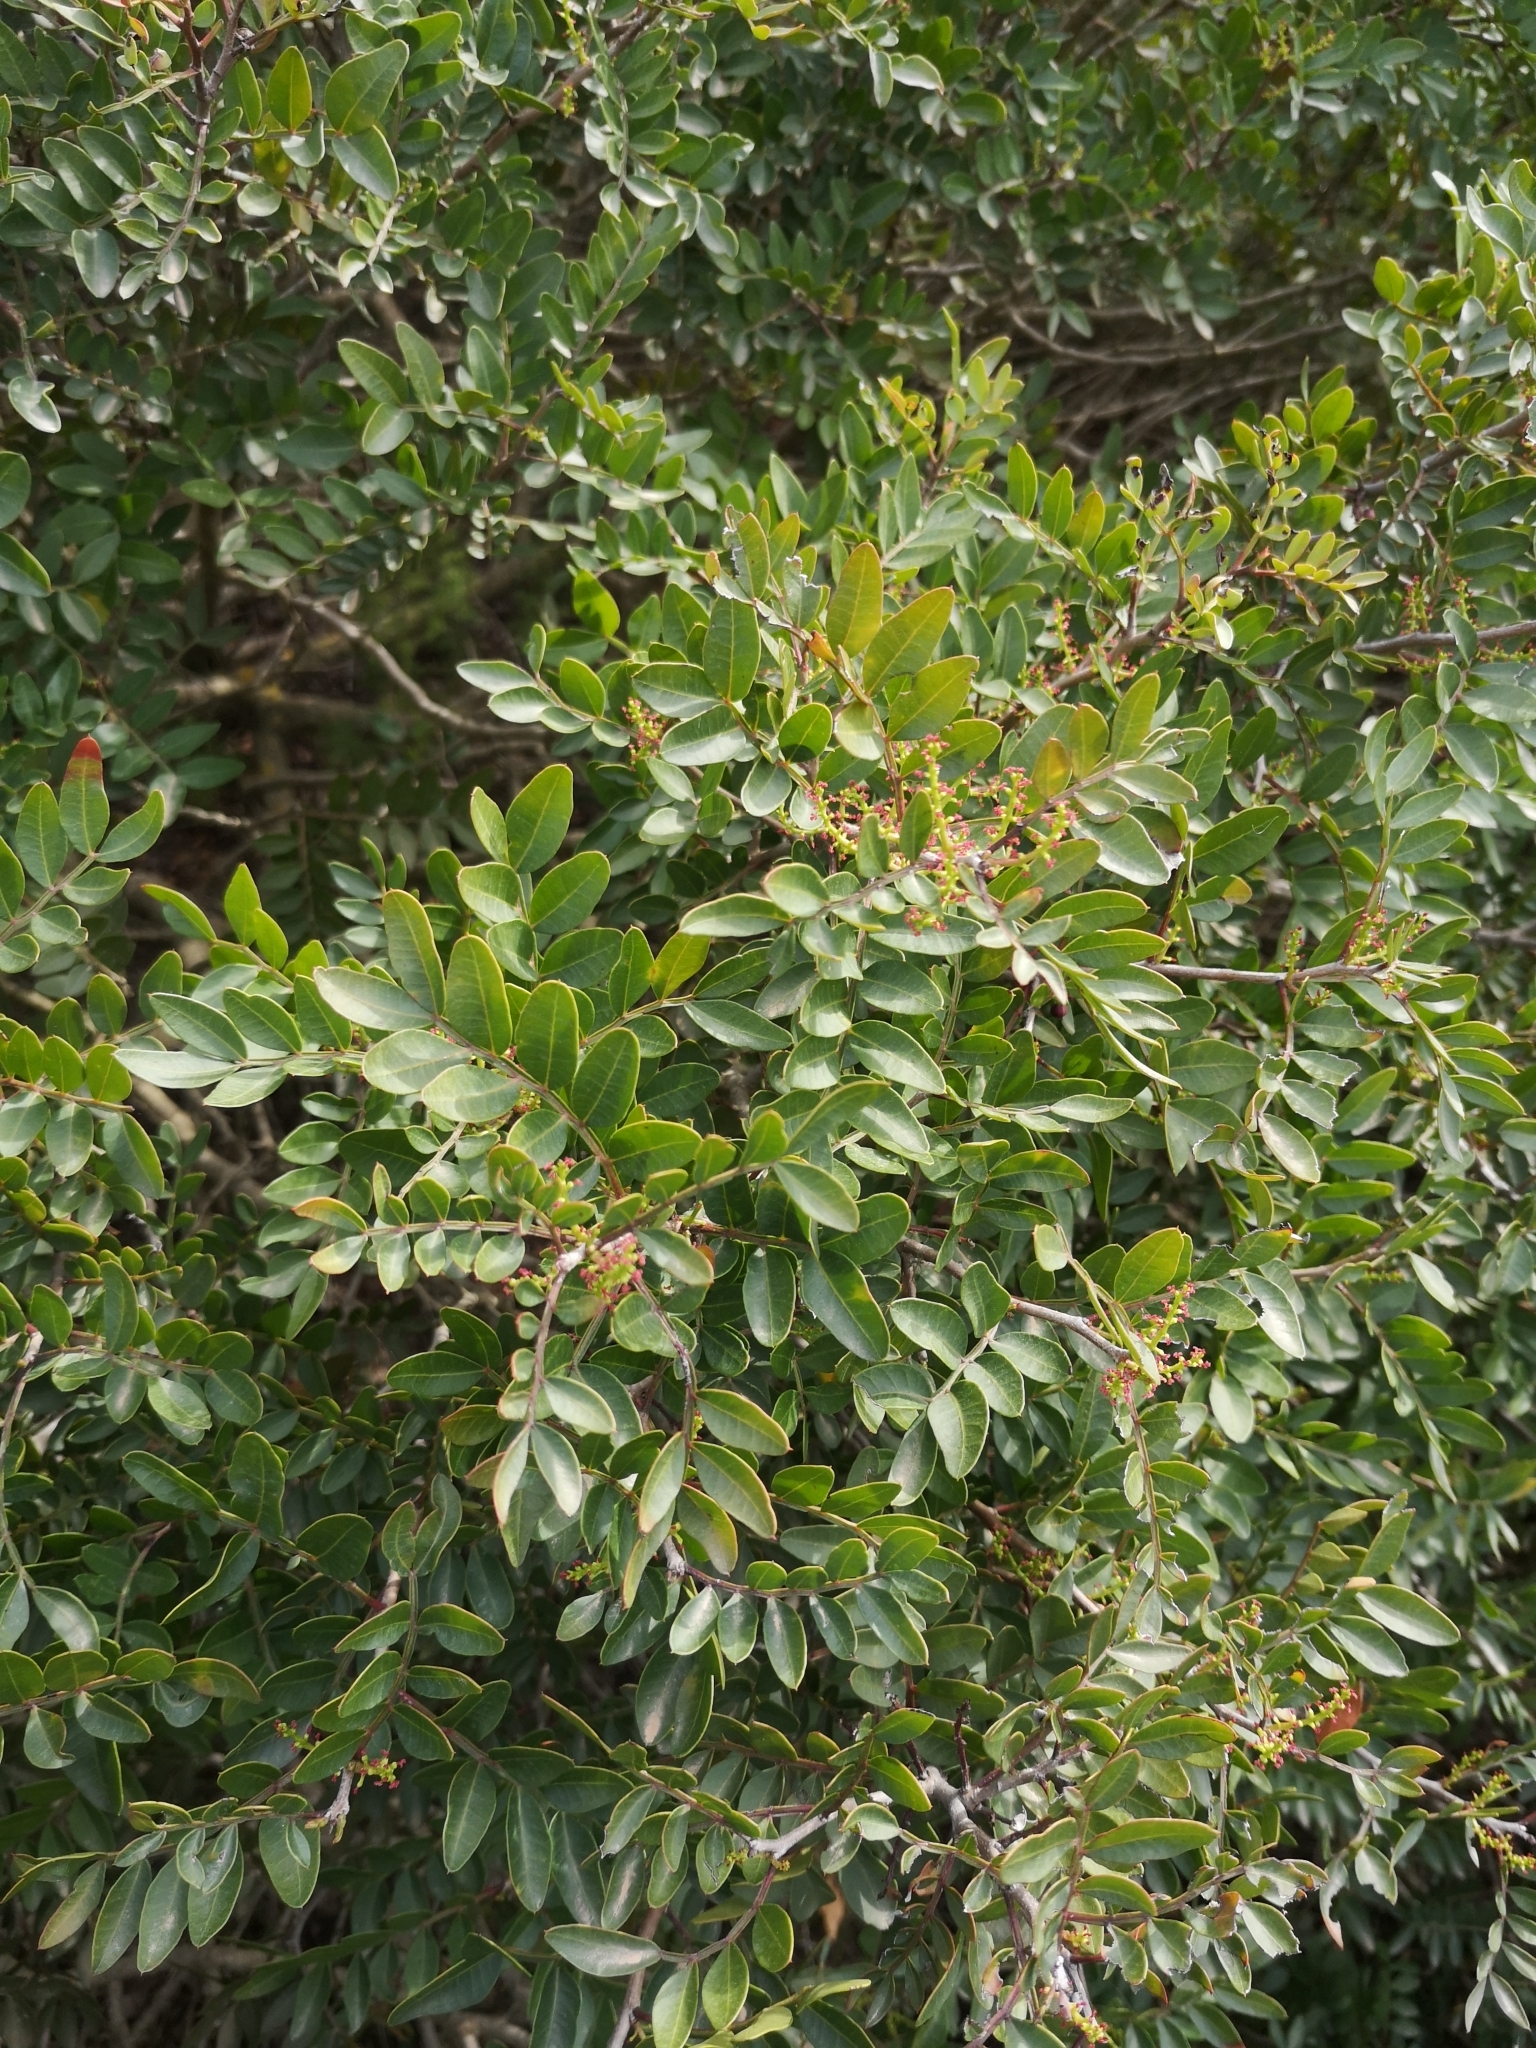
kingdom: Plantae
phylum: Tracheophyta
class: Magnoliopsida
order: Sapindales
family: Anacardiaceae
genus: Pistacia
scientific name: Pistacia lentiscus
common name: Lentisk
